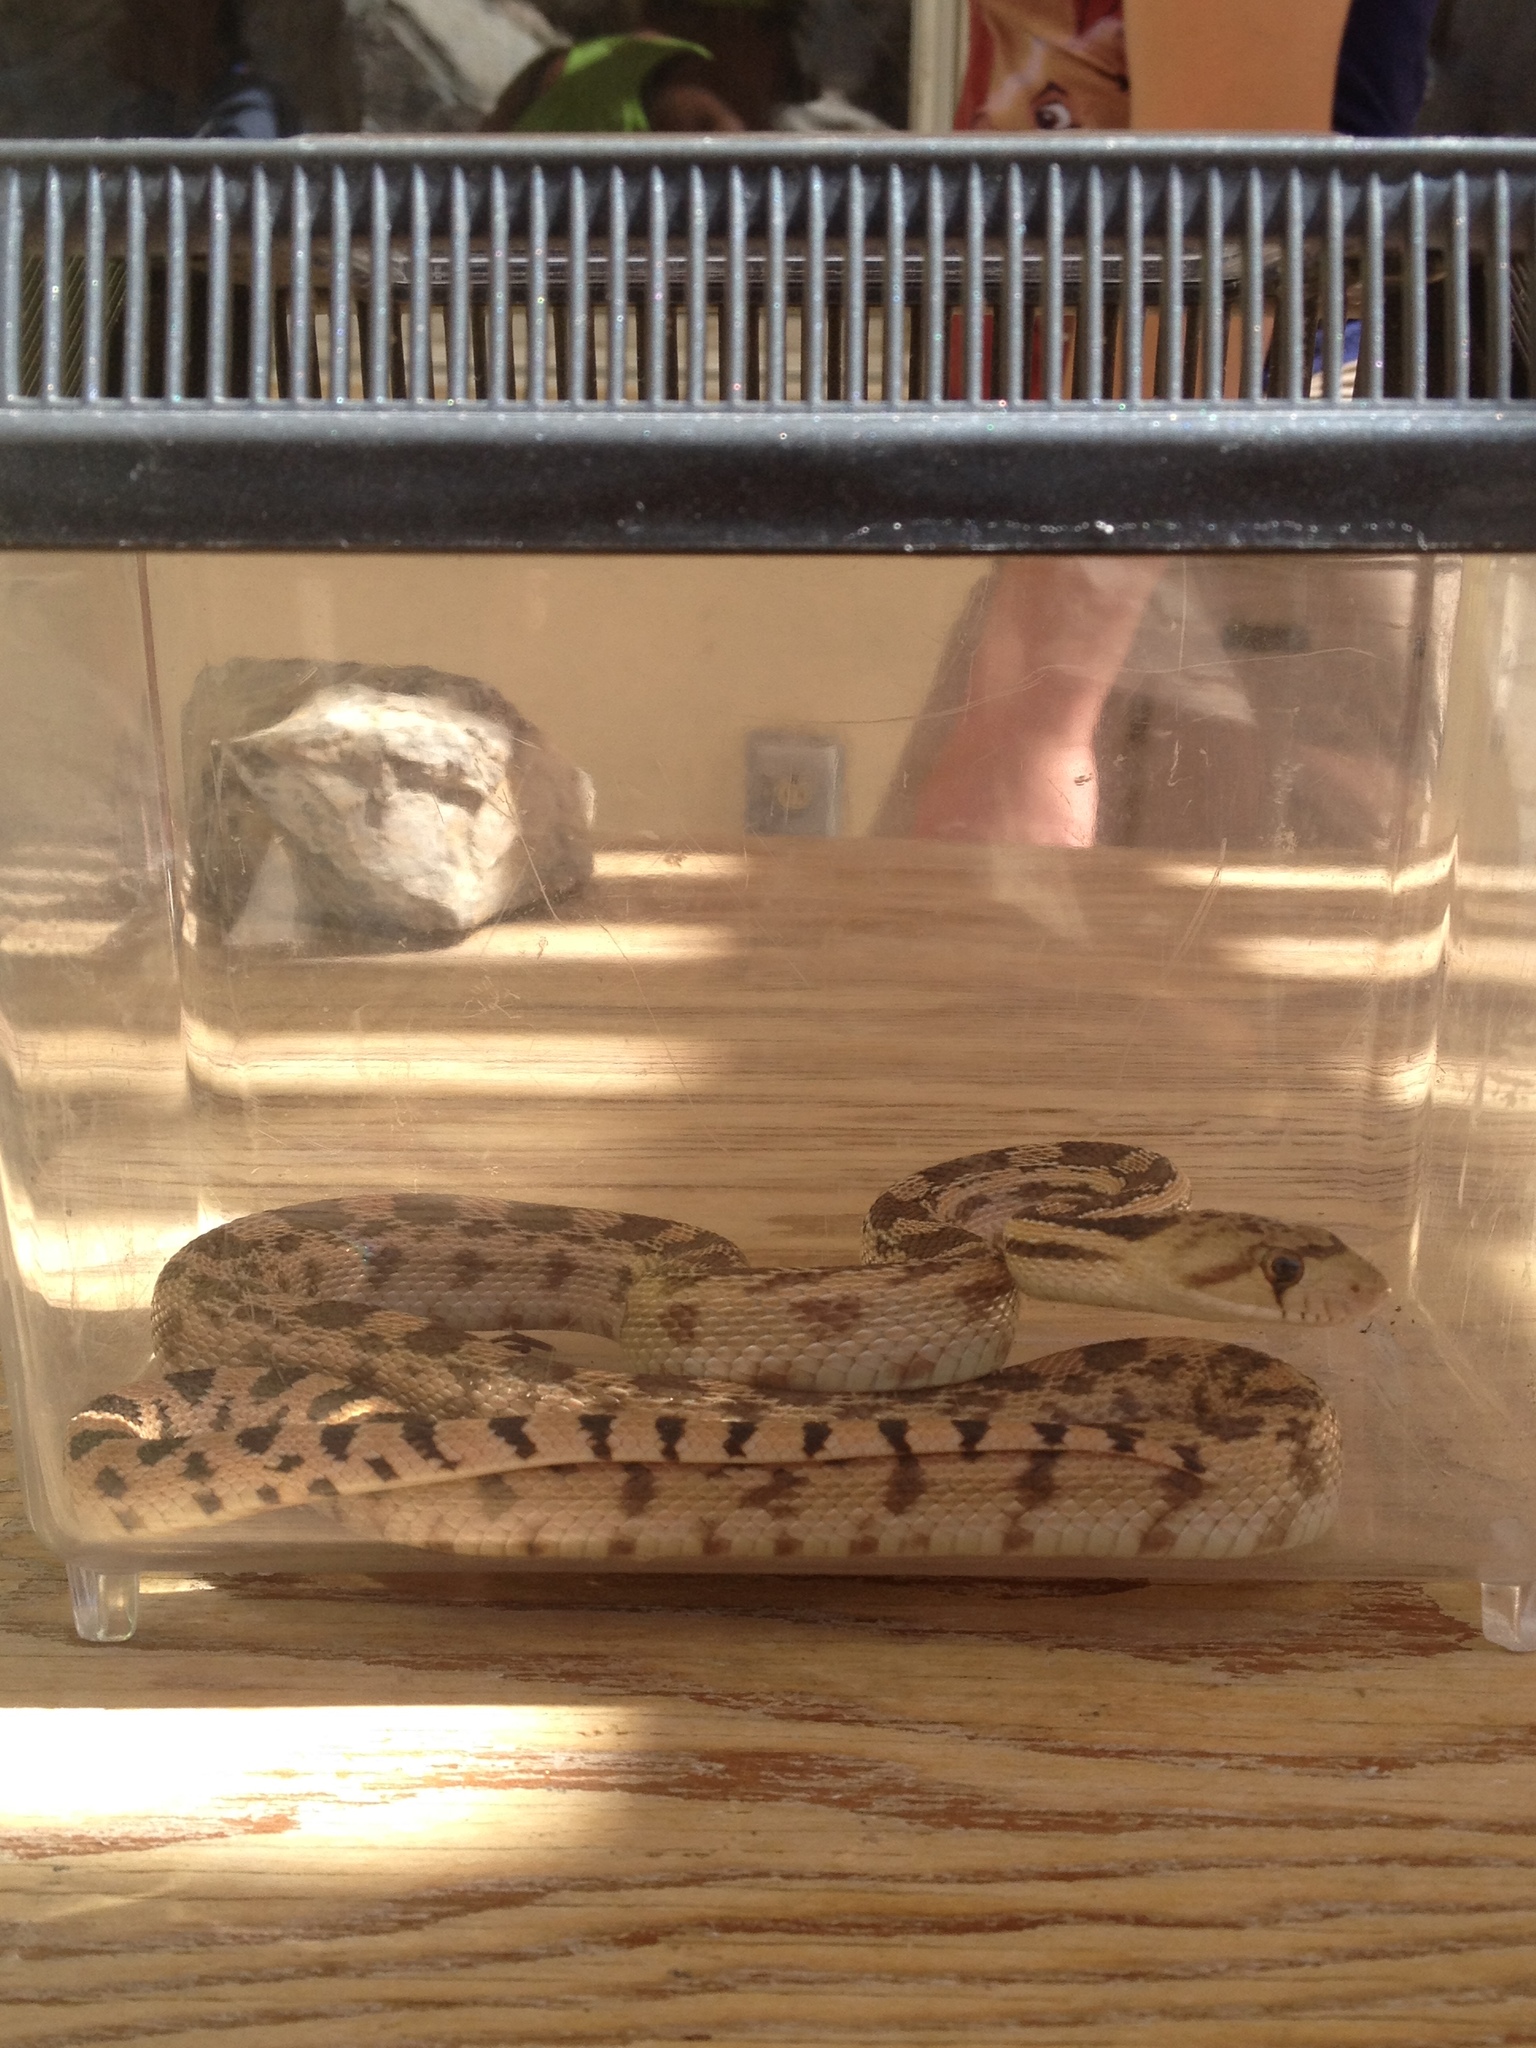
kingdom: Animalia
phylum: Chordata
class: Squamata
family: Colubridae
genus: Pituophis
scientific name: Pituophis catenifer
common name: Gopher snake
